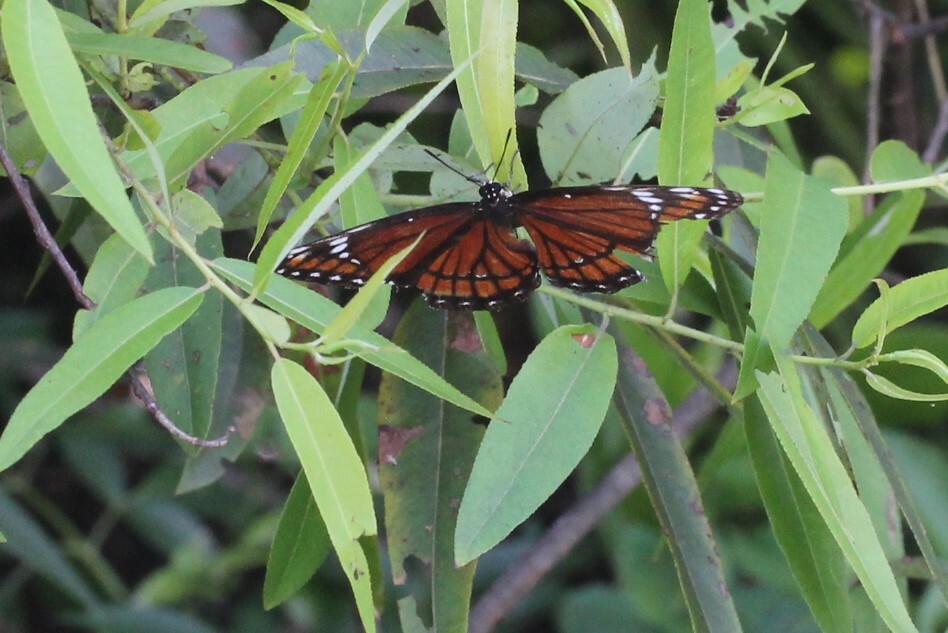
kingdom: Animalia
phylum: Arthropoda
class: Insecta
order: Lepidoptera
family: Nymphalidae
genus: Limenitis
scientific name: Limenitis archippus
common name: Viceroy
